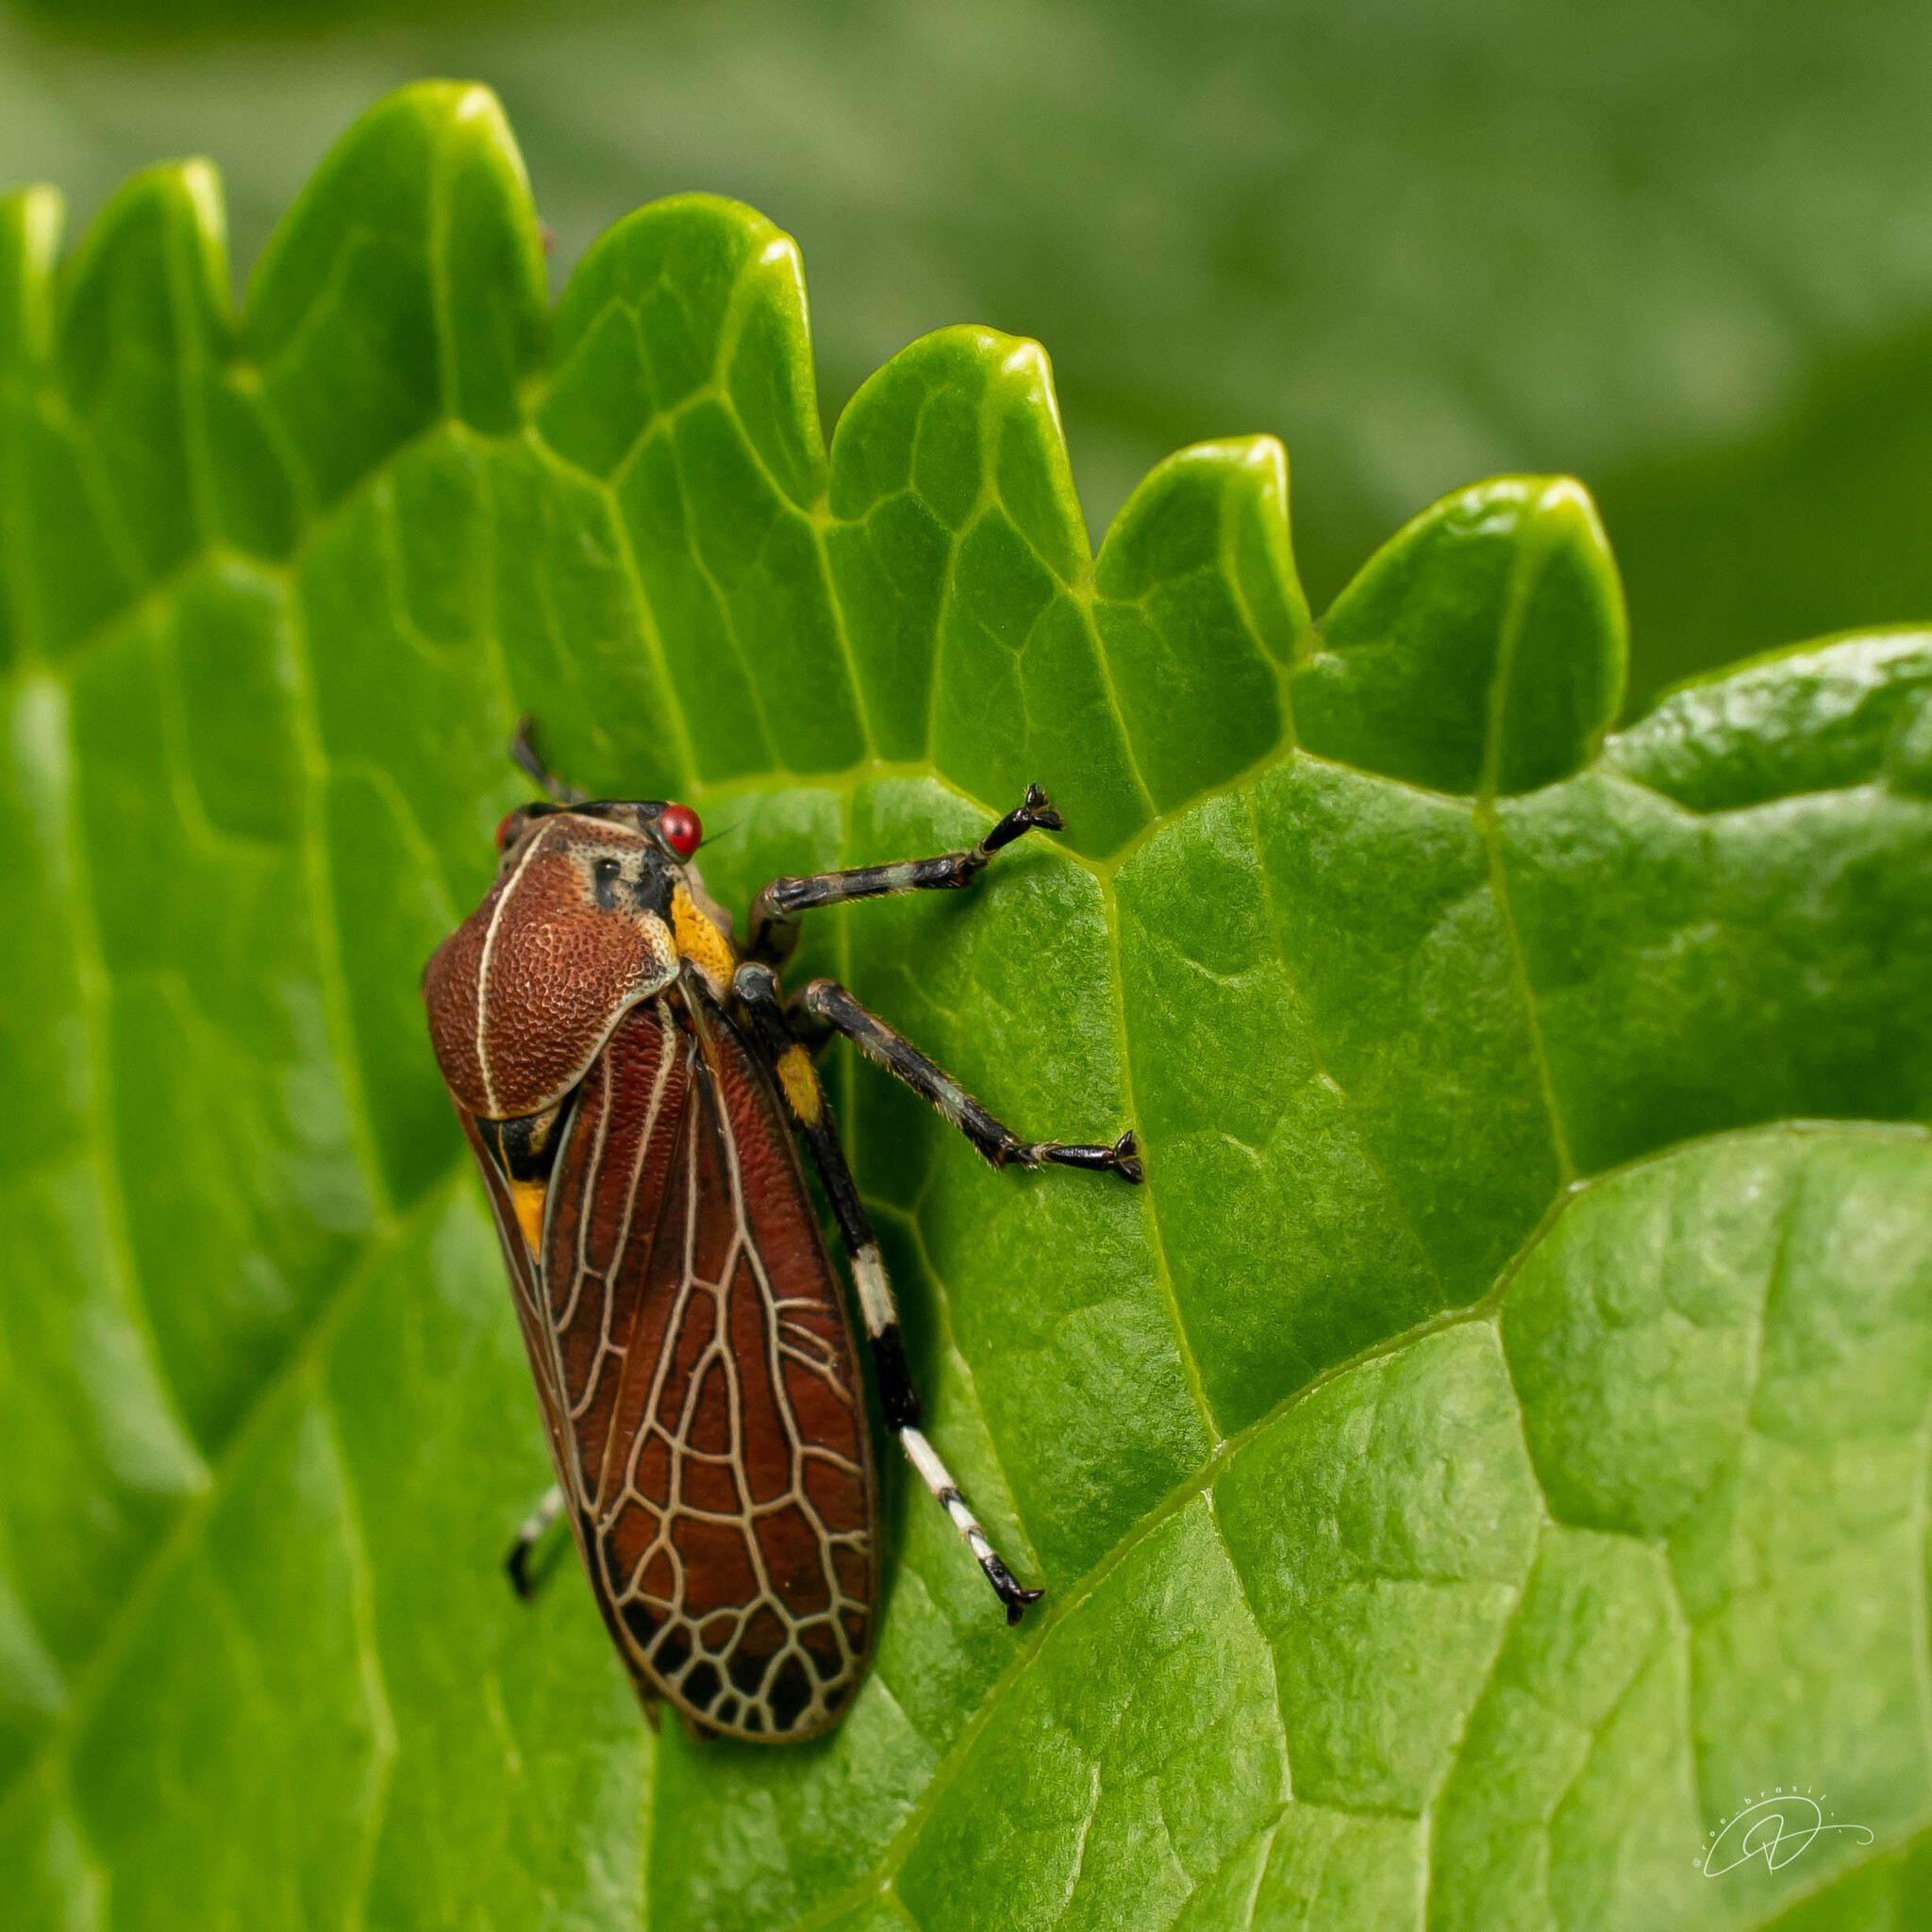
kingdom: Animalia
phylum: Arthropoda
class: Insecta
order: Hemiptera
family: Aetalionidae
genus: Aetalion
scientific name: Aetalion reticulatum
